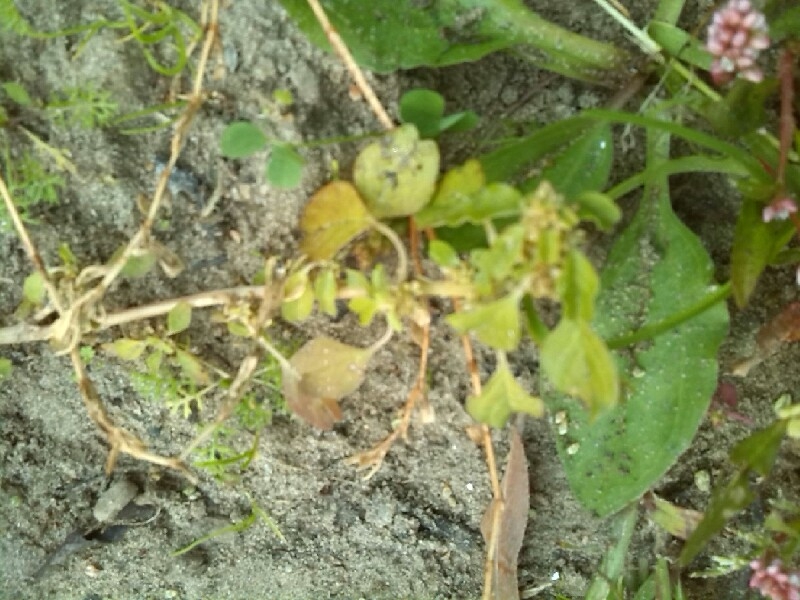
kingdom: Plantae
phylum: Tracheophyta
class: Magnoliopsida
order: Caryophyllales
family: Amaranthaceae
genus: Amaranthus
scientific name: Amaranthus blitum
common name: Purple amaranth
